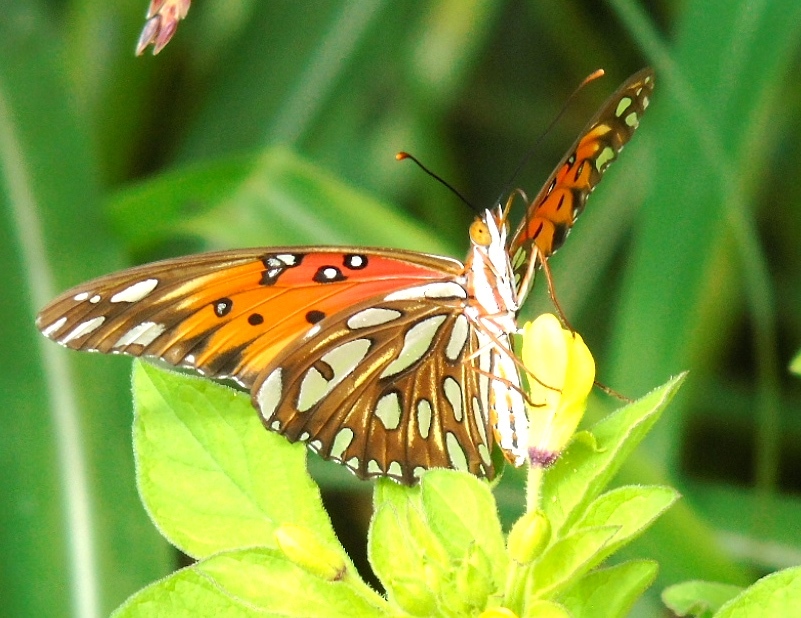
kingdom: Animalia
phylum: Arthropoda
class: Insecta
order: Lepidoptera
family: Nymphalidae
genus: Dione
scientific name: Dione vanillae
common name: Gulf fritillary
